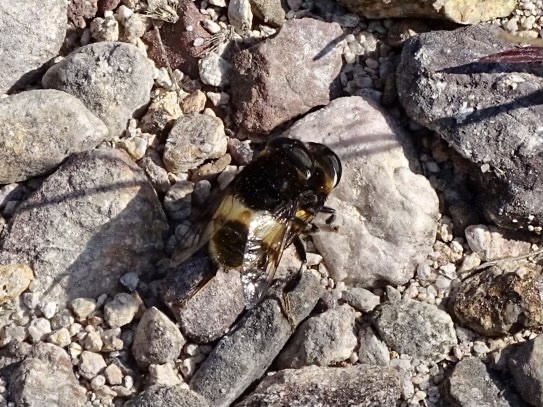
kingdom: Animalia
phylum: Arthropoda
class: Insecta
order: Diptera
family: Syrphidae
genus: Phytomia
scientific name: Phytomia zonata
